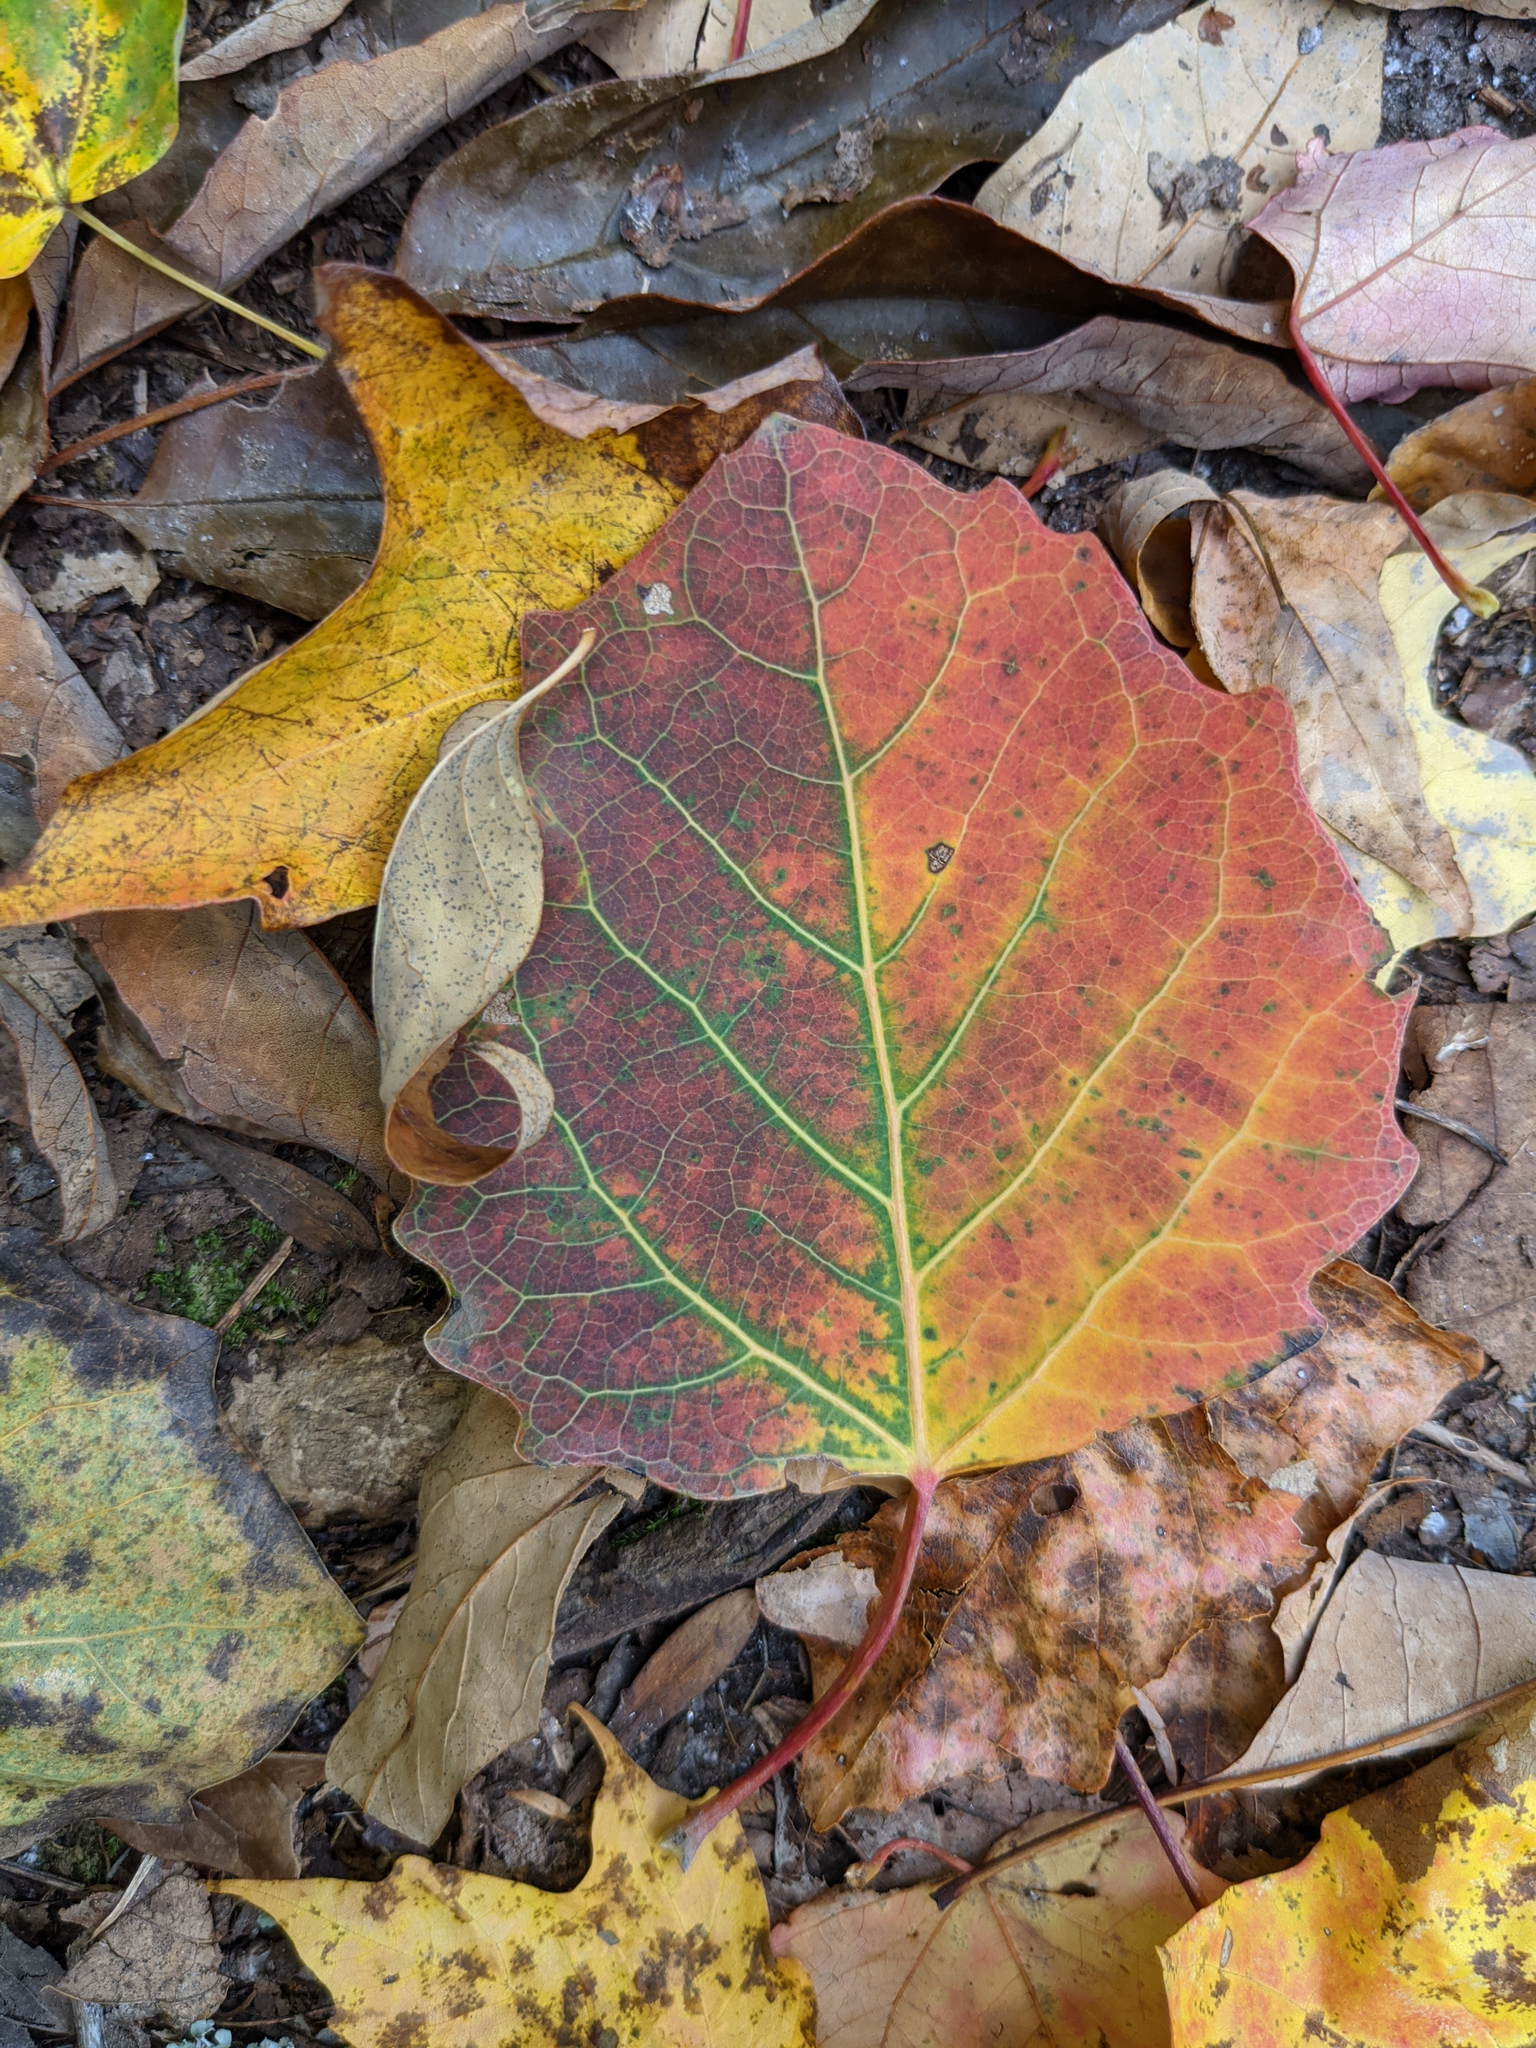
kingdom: Plantae
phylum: Tracheophyta
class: Magnoliopsida
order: Malpighiales
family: Salicaceae
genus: Populus
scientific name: Populus grandidentata
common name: Bigtooth aspen
